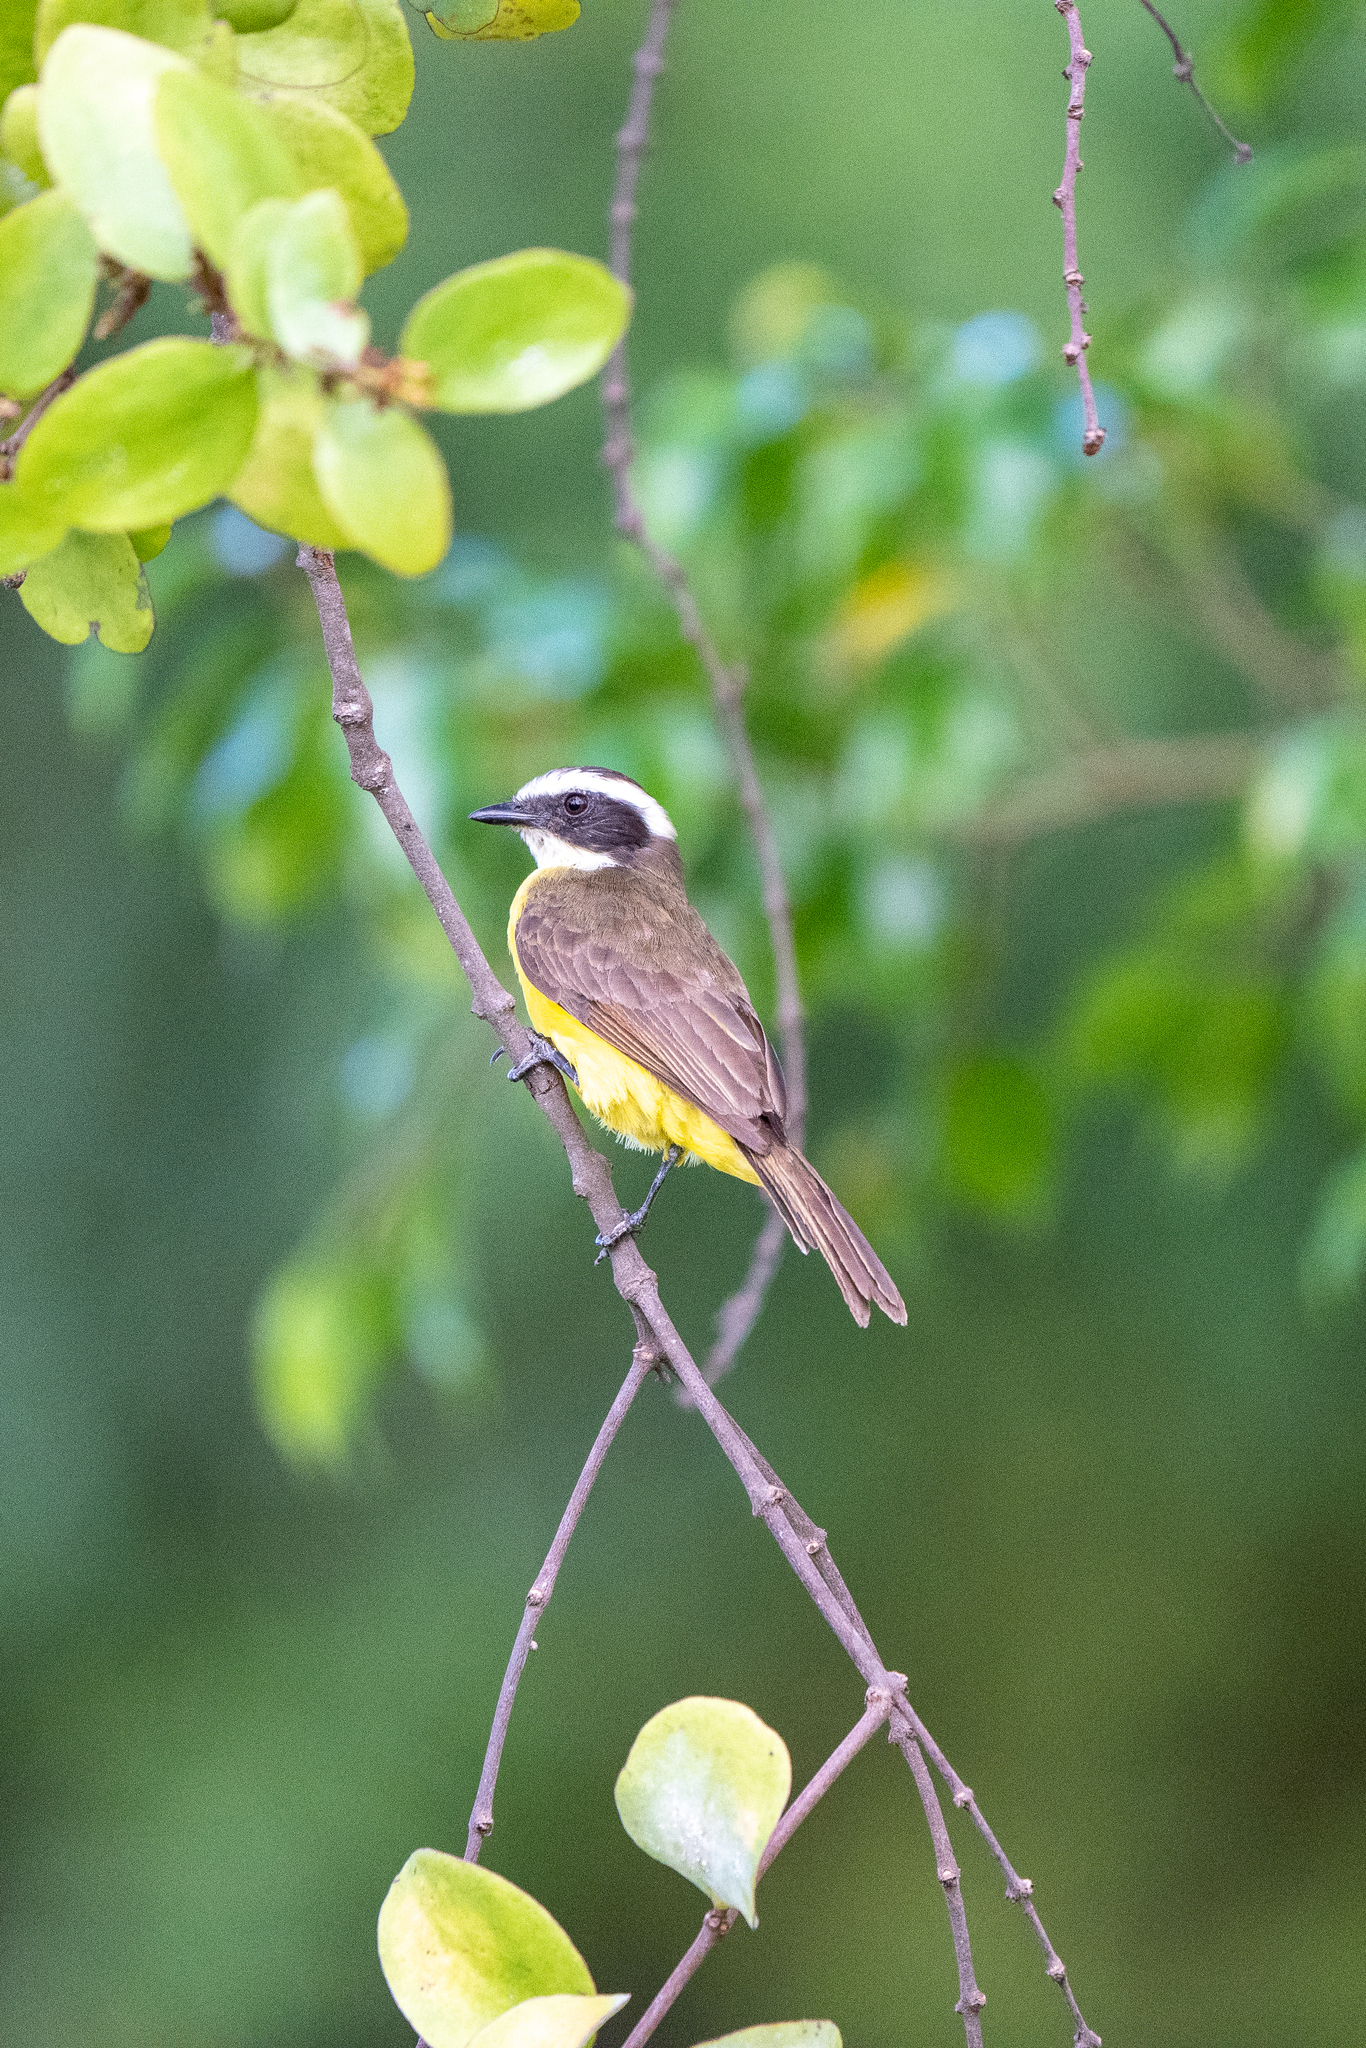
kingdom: Animalia
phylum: Chordata
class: Aves
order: Passeriformes
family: Tyrannidae
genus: Myiozetetes
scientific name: Myiozetetes cayanensis
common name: Rusty-margined flycatcher
